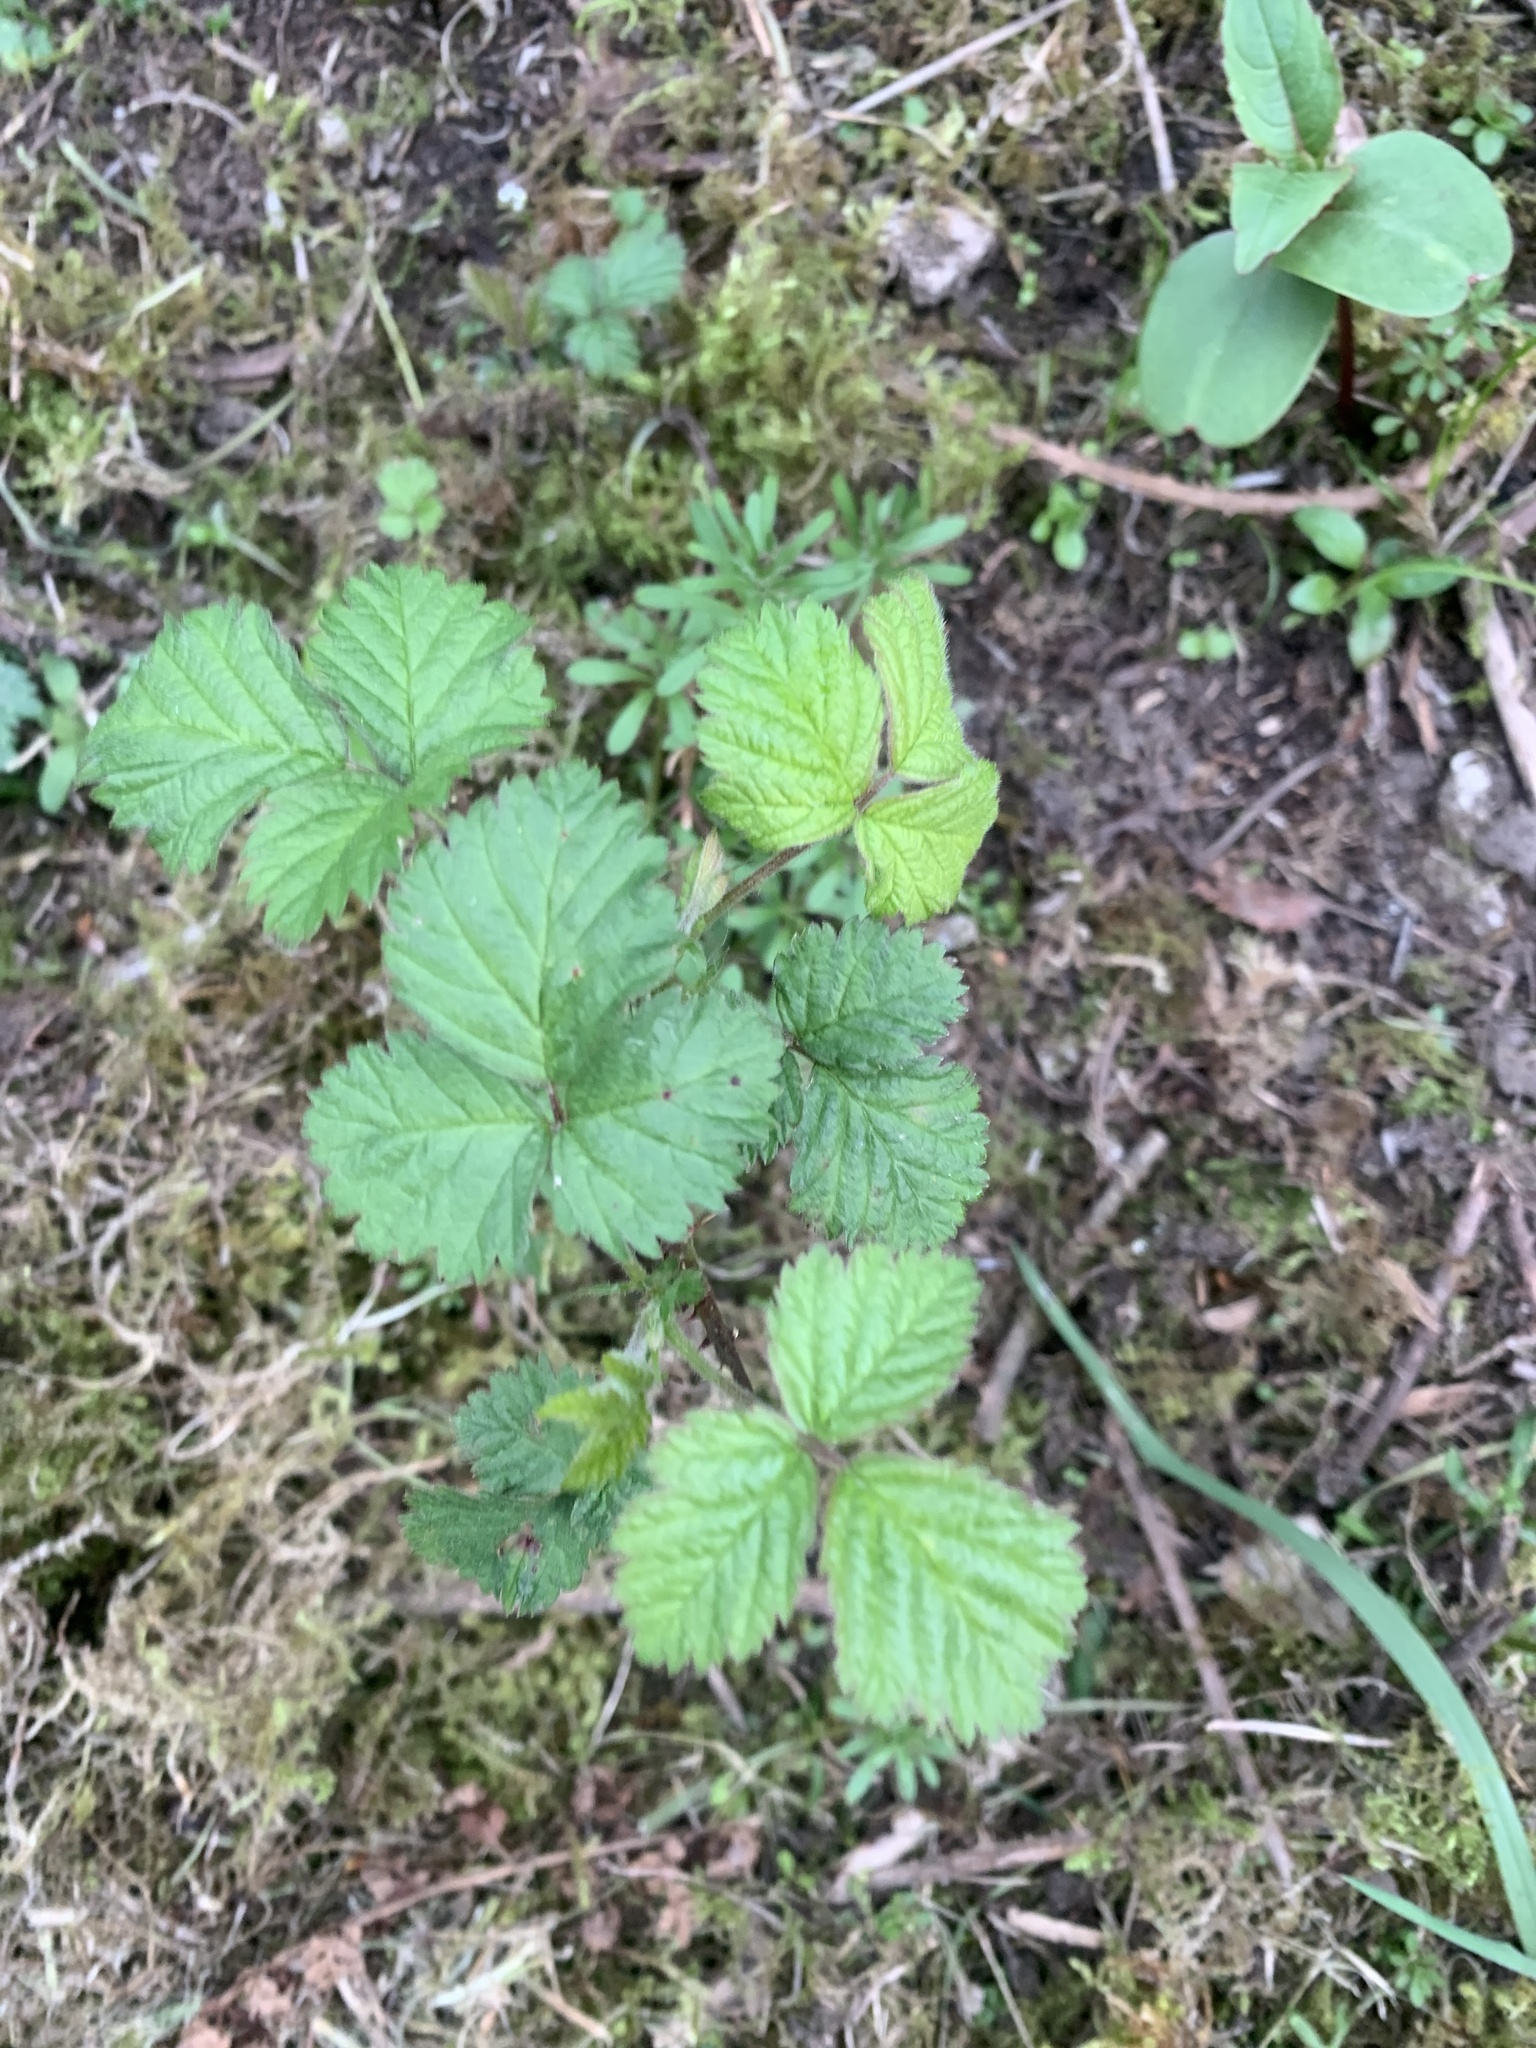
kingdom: Plantae
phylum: Tracheophyta
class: Magnoliopsida
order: Rosales
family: Rosaceae
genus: Rubus
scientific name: Rubus fruticosus
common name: Blackberry, bramble
